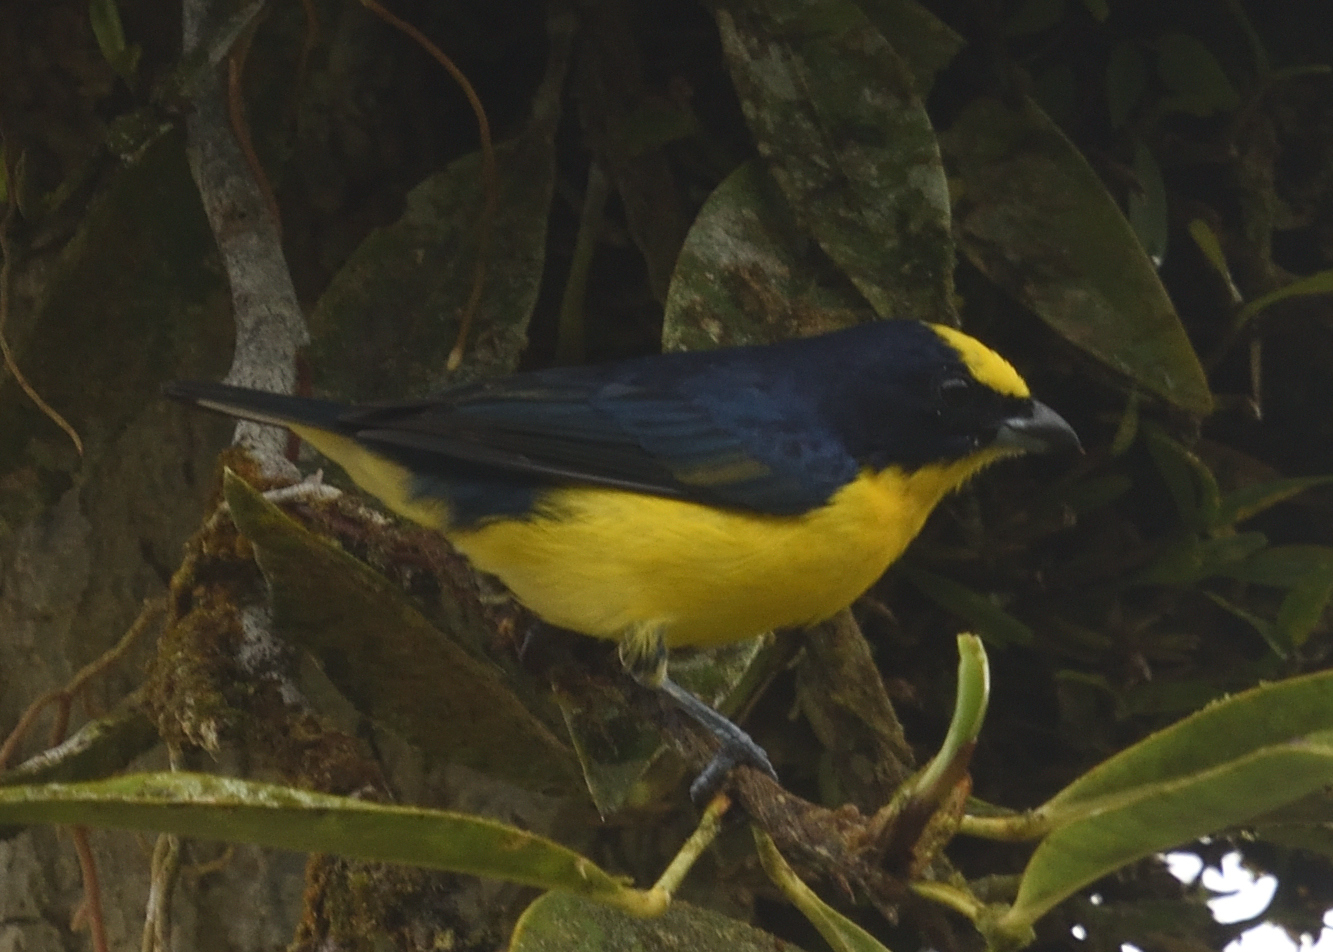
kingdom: Animalia
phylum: Chordata
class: Aves
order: Passeriformes
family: Fringillidae
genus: Euphonia
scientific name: Euphonia laniirostris
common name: Thick-billed euphonia
